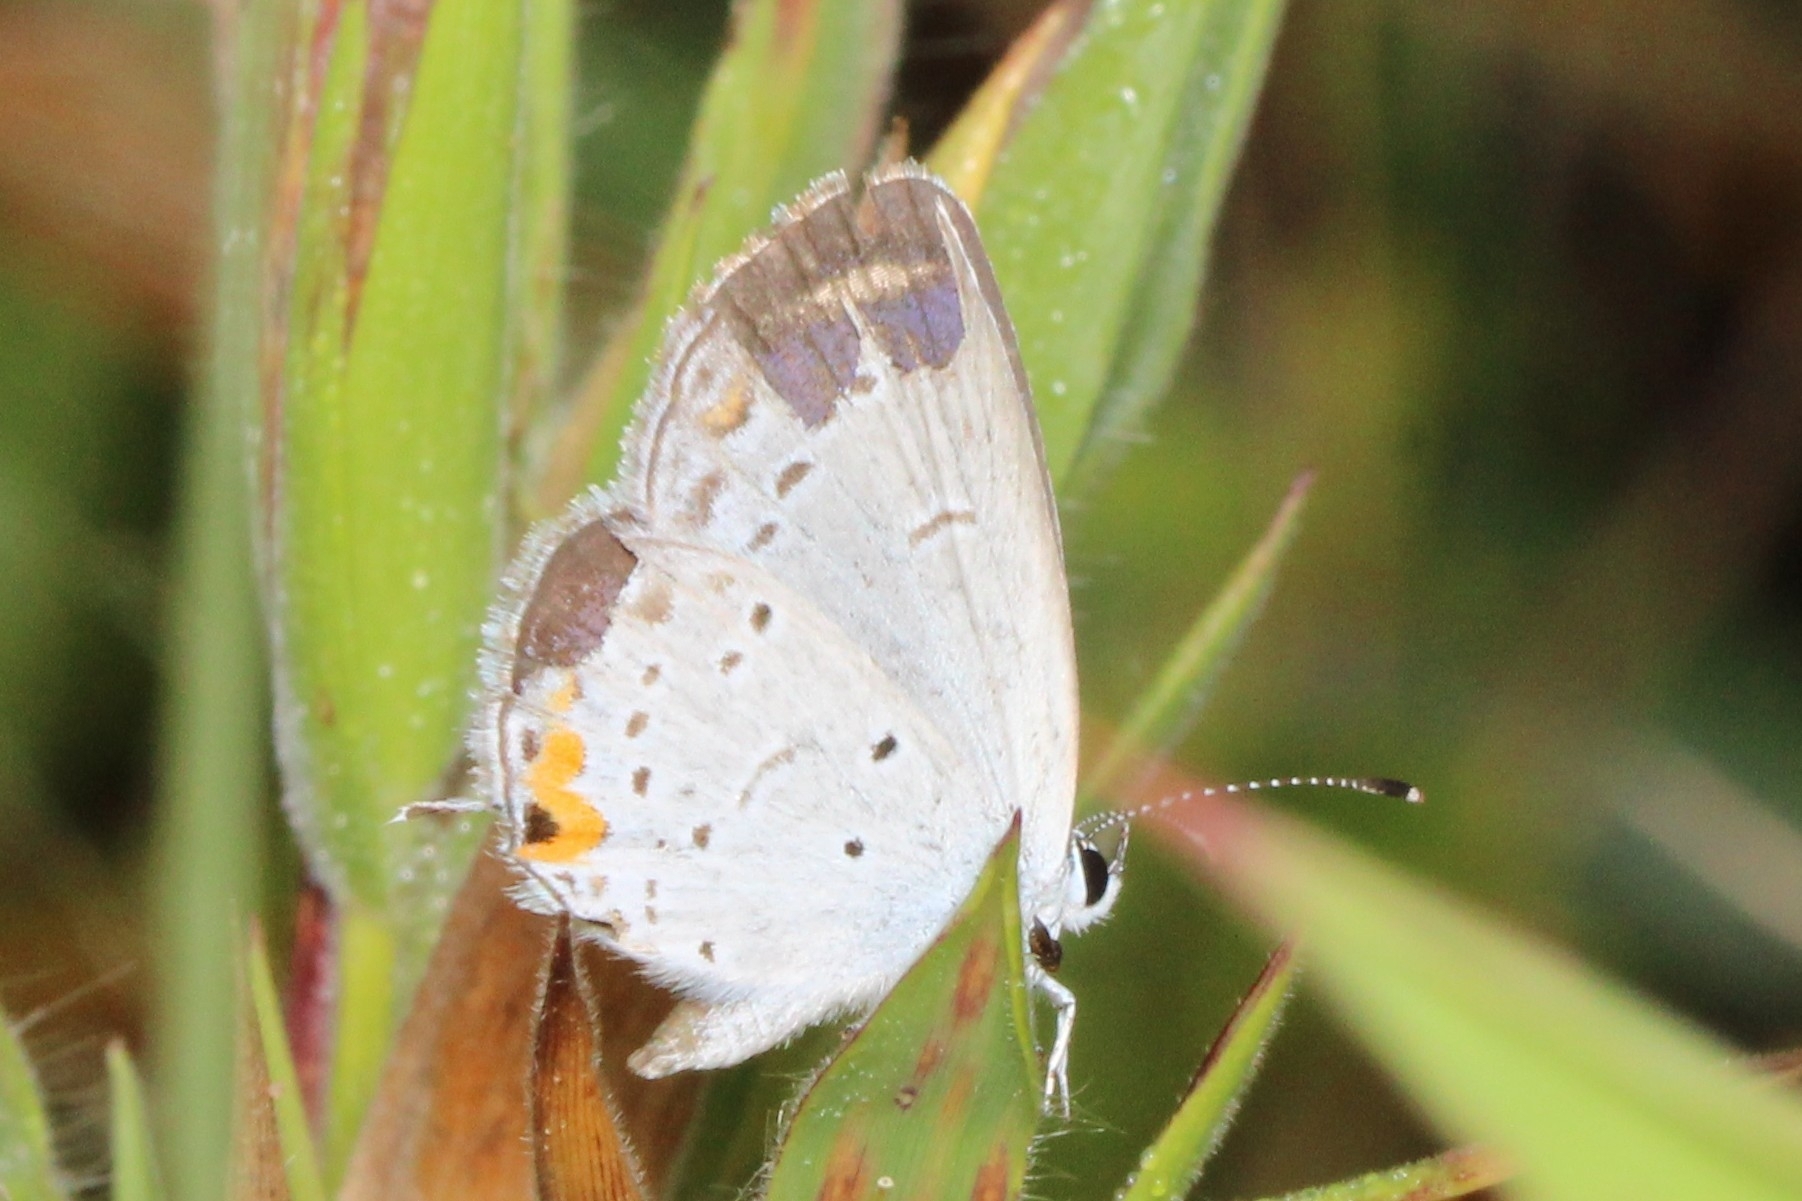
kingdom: Animalia
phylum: Arthropoda
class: Insecta
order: Lepidoptera
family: Lycaenidae
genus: Elkalyce
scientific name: Elkalyce comyntas
